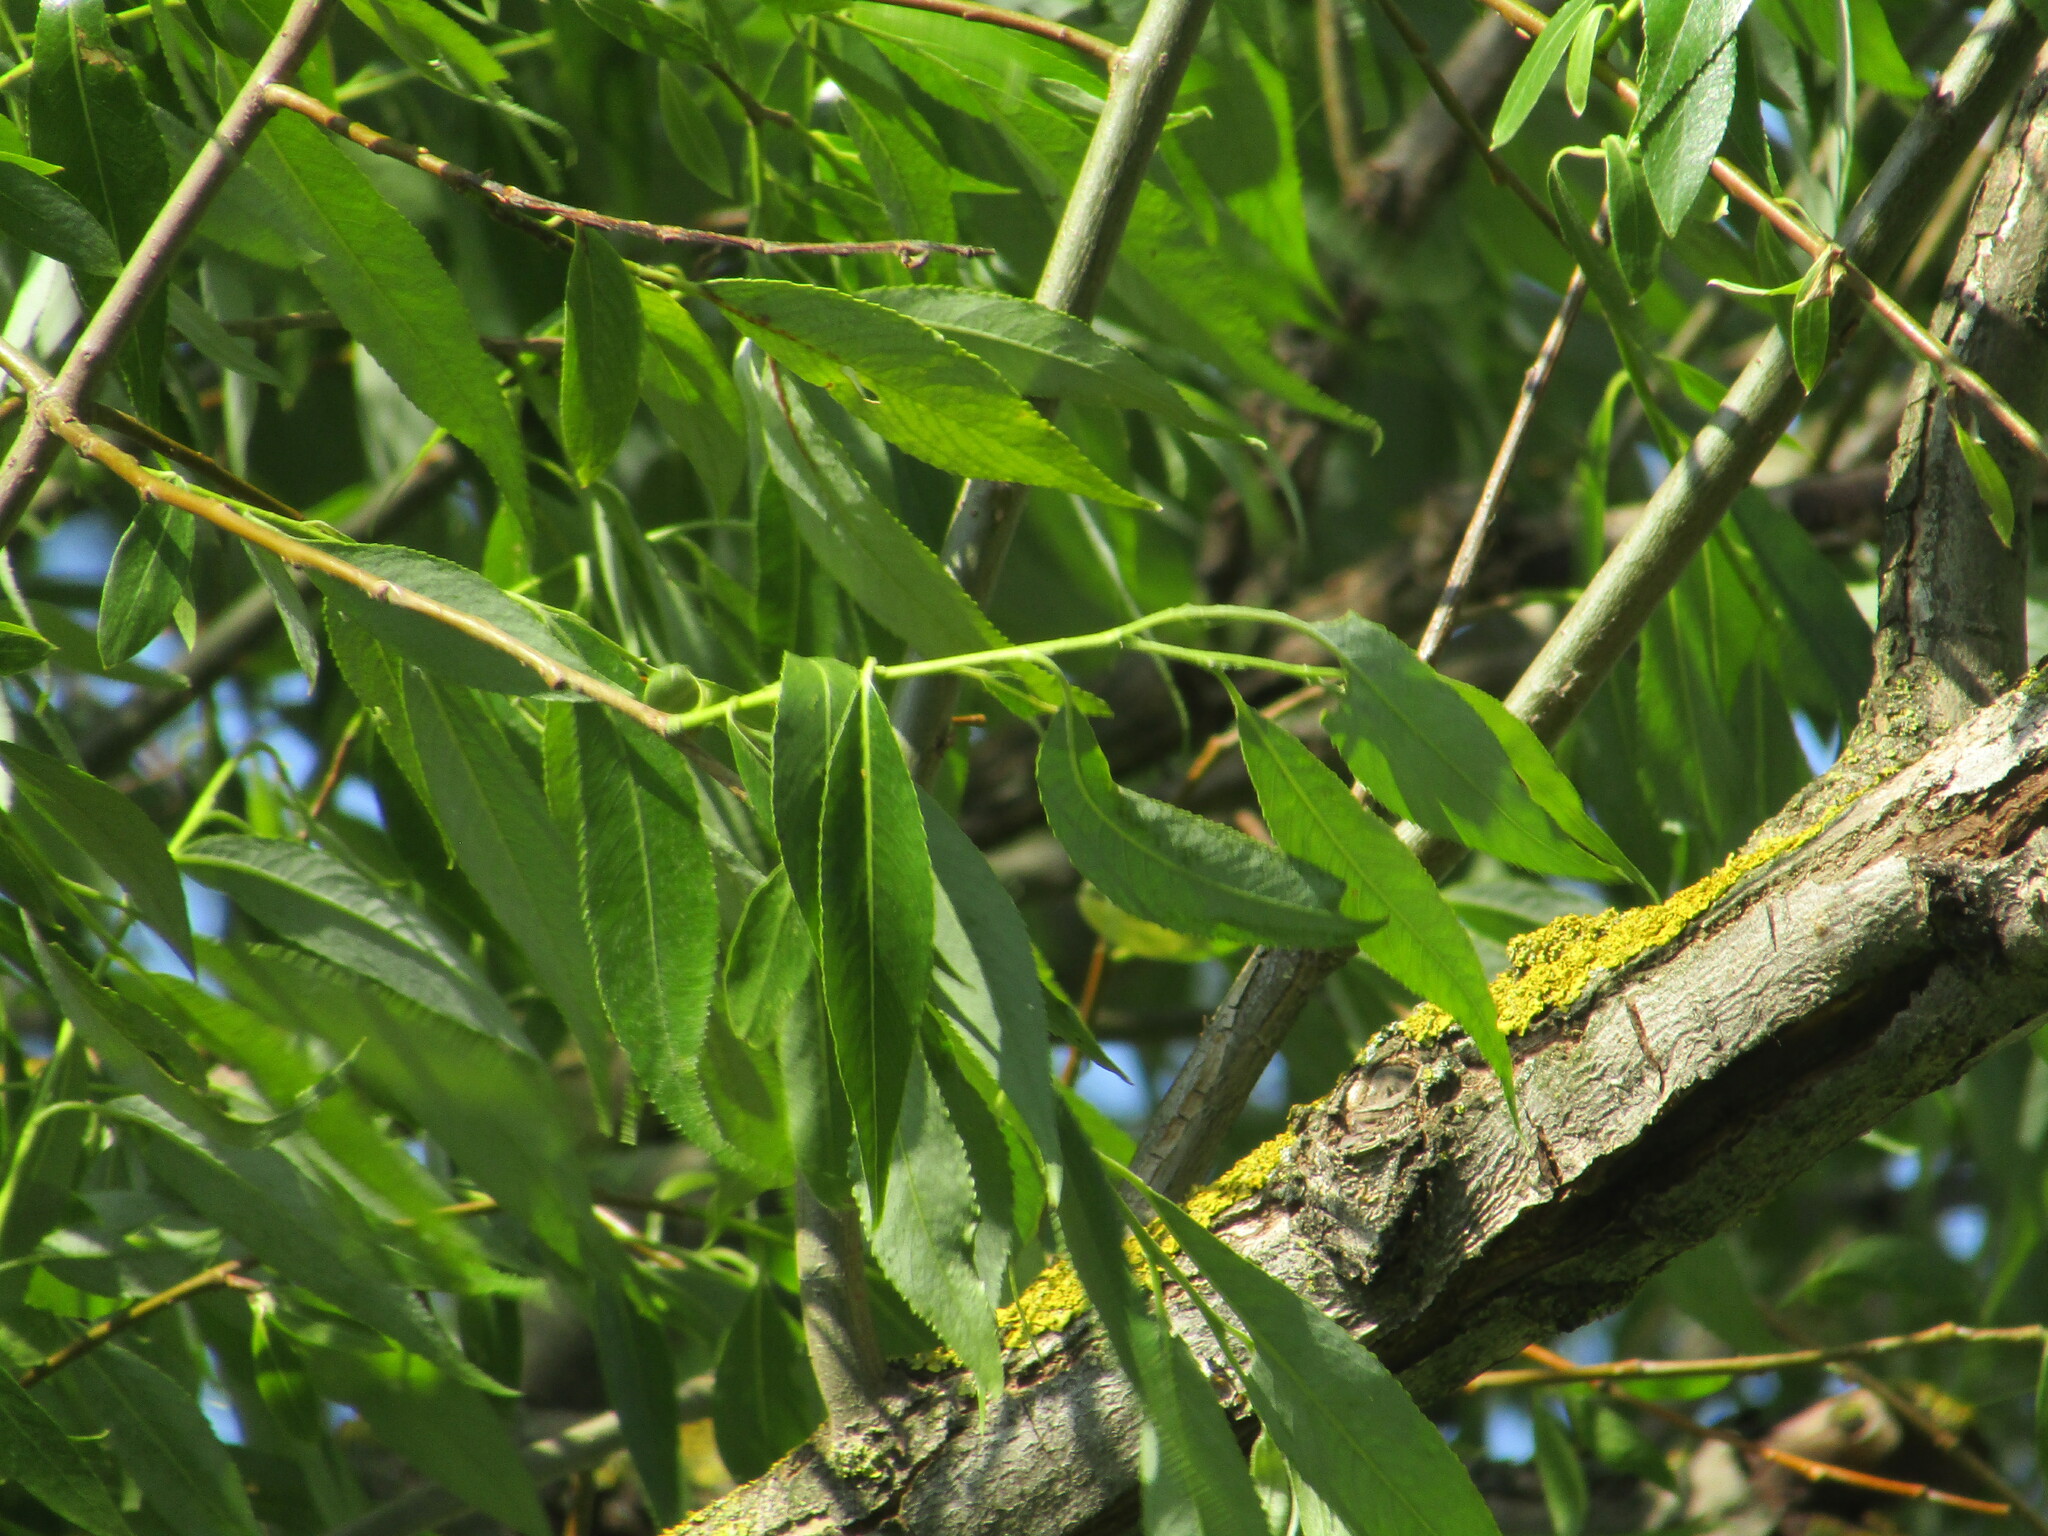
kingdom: Plantae
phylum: Tracheophyta
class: Magnoliopsida
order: Malpighiales
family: Salicaceae
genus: Salix
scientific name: Salix alba
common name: White willow
